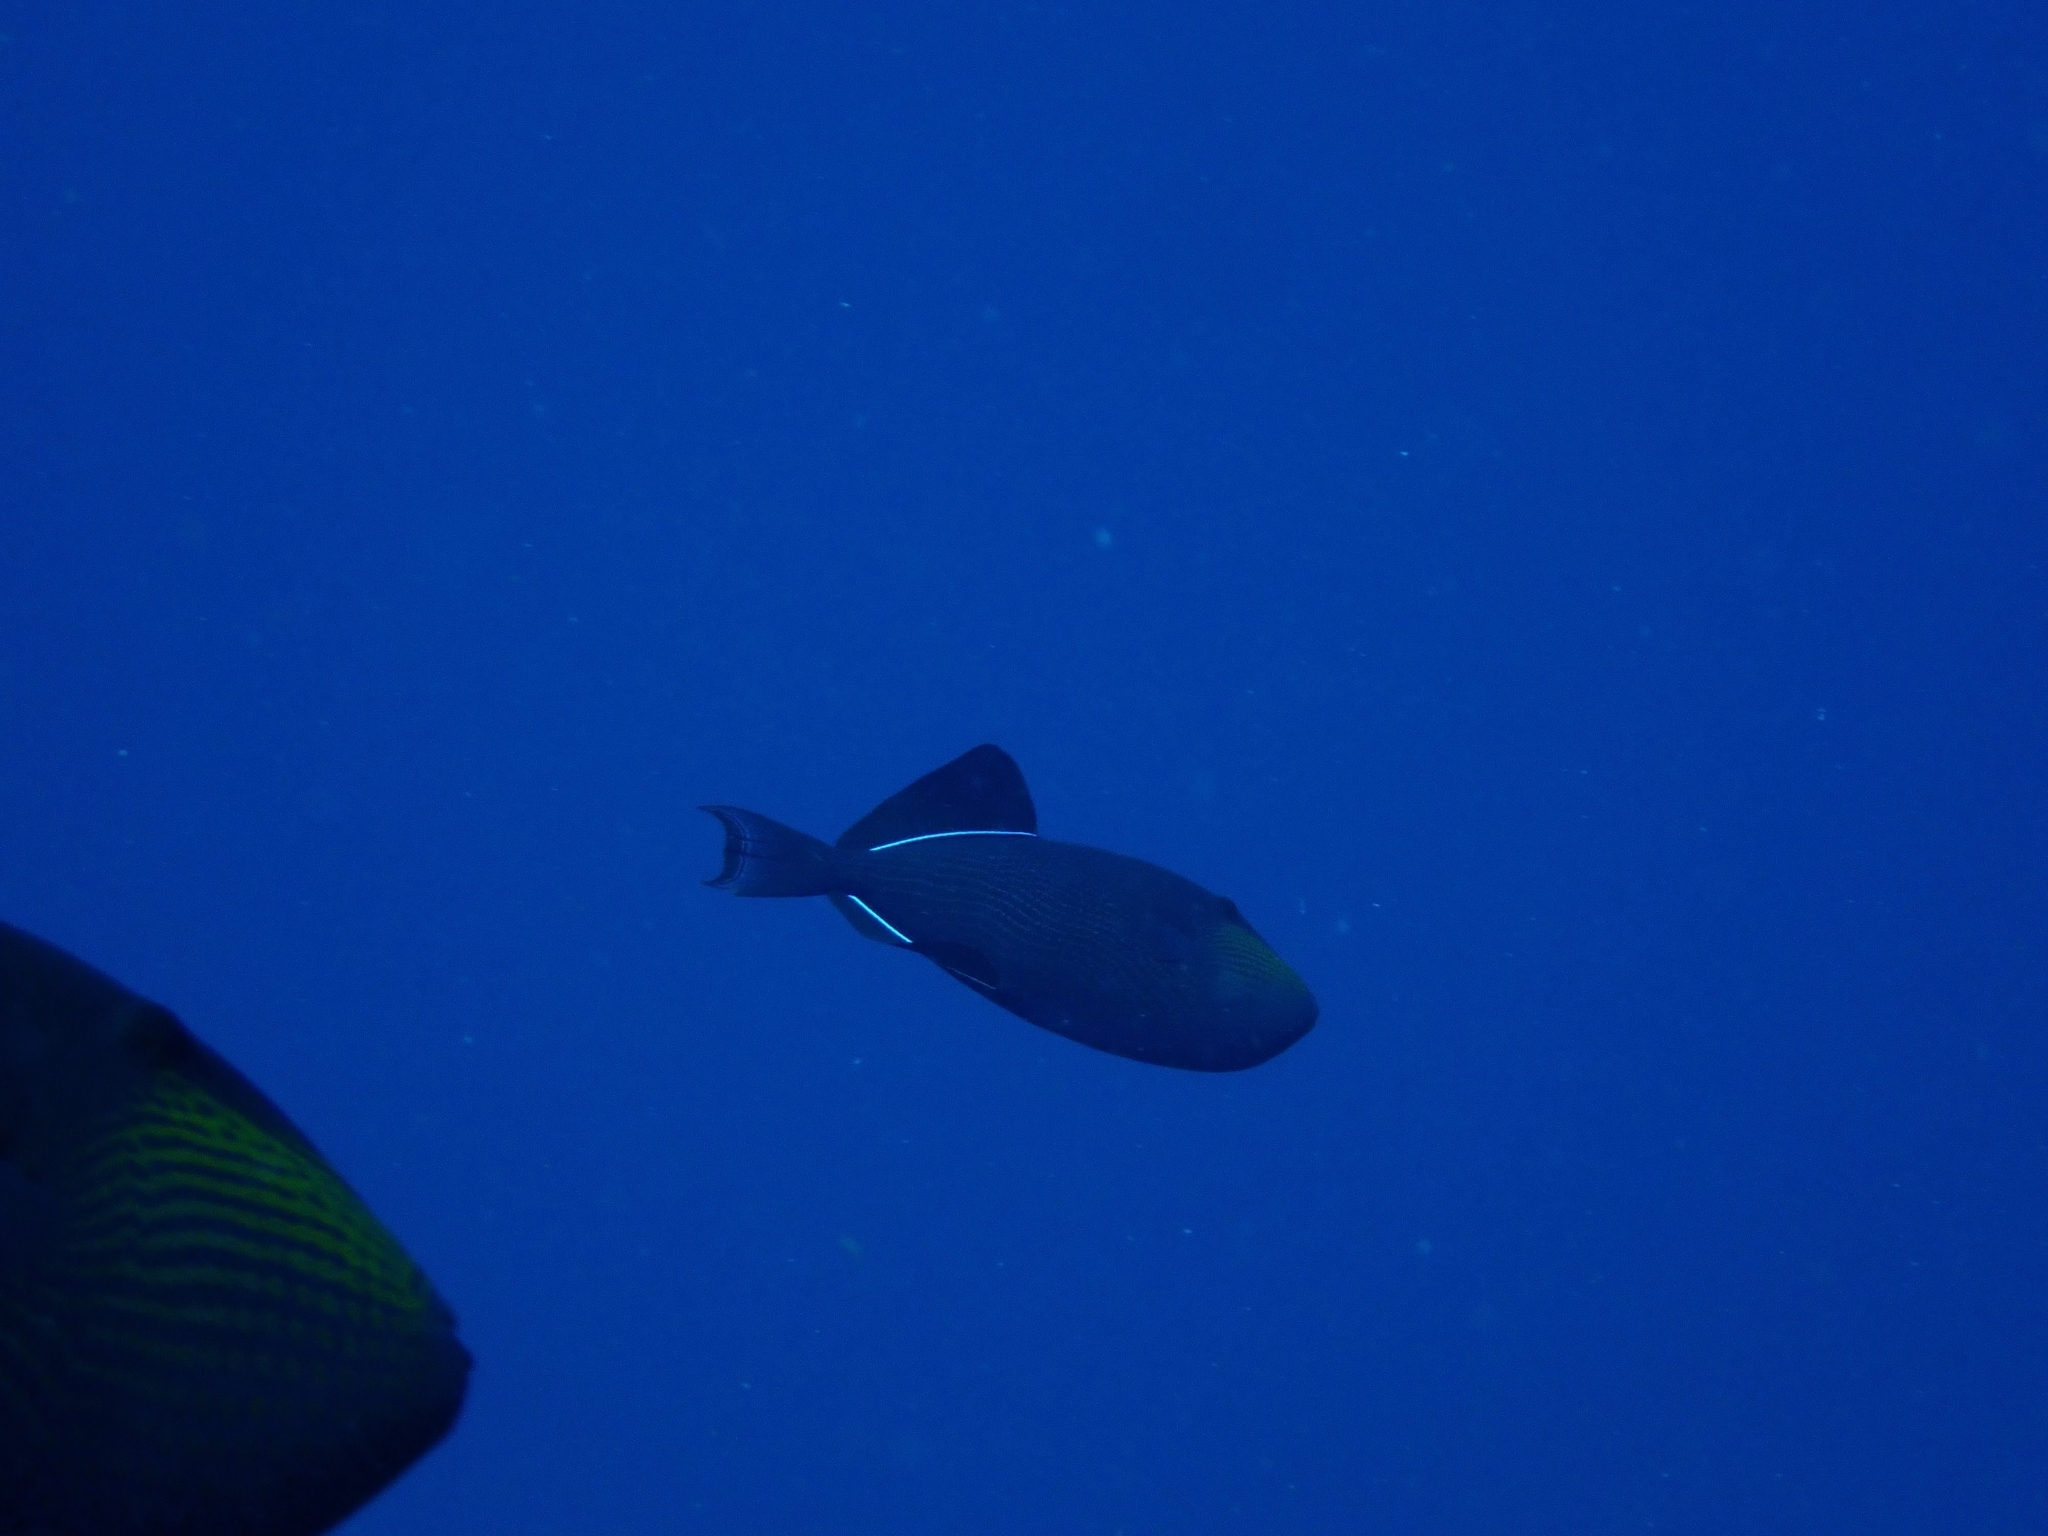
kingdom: Animalia
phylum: Chordata
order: Tetraodontiformes
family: Balistidae
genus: Melichthys
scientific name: Melichthys niger
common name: Black durgon
